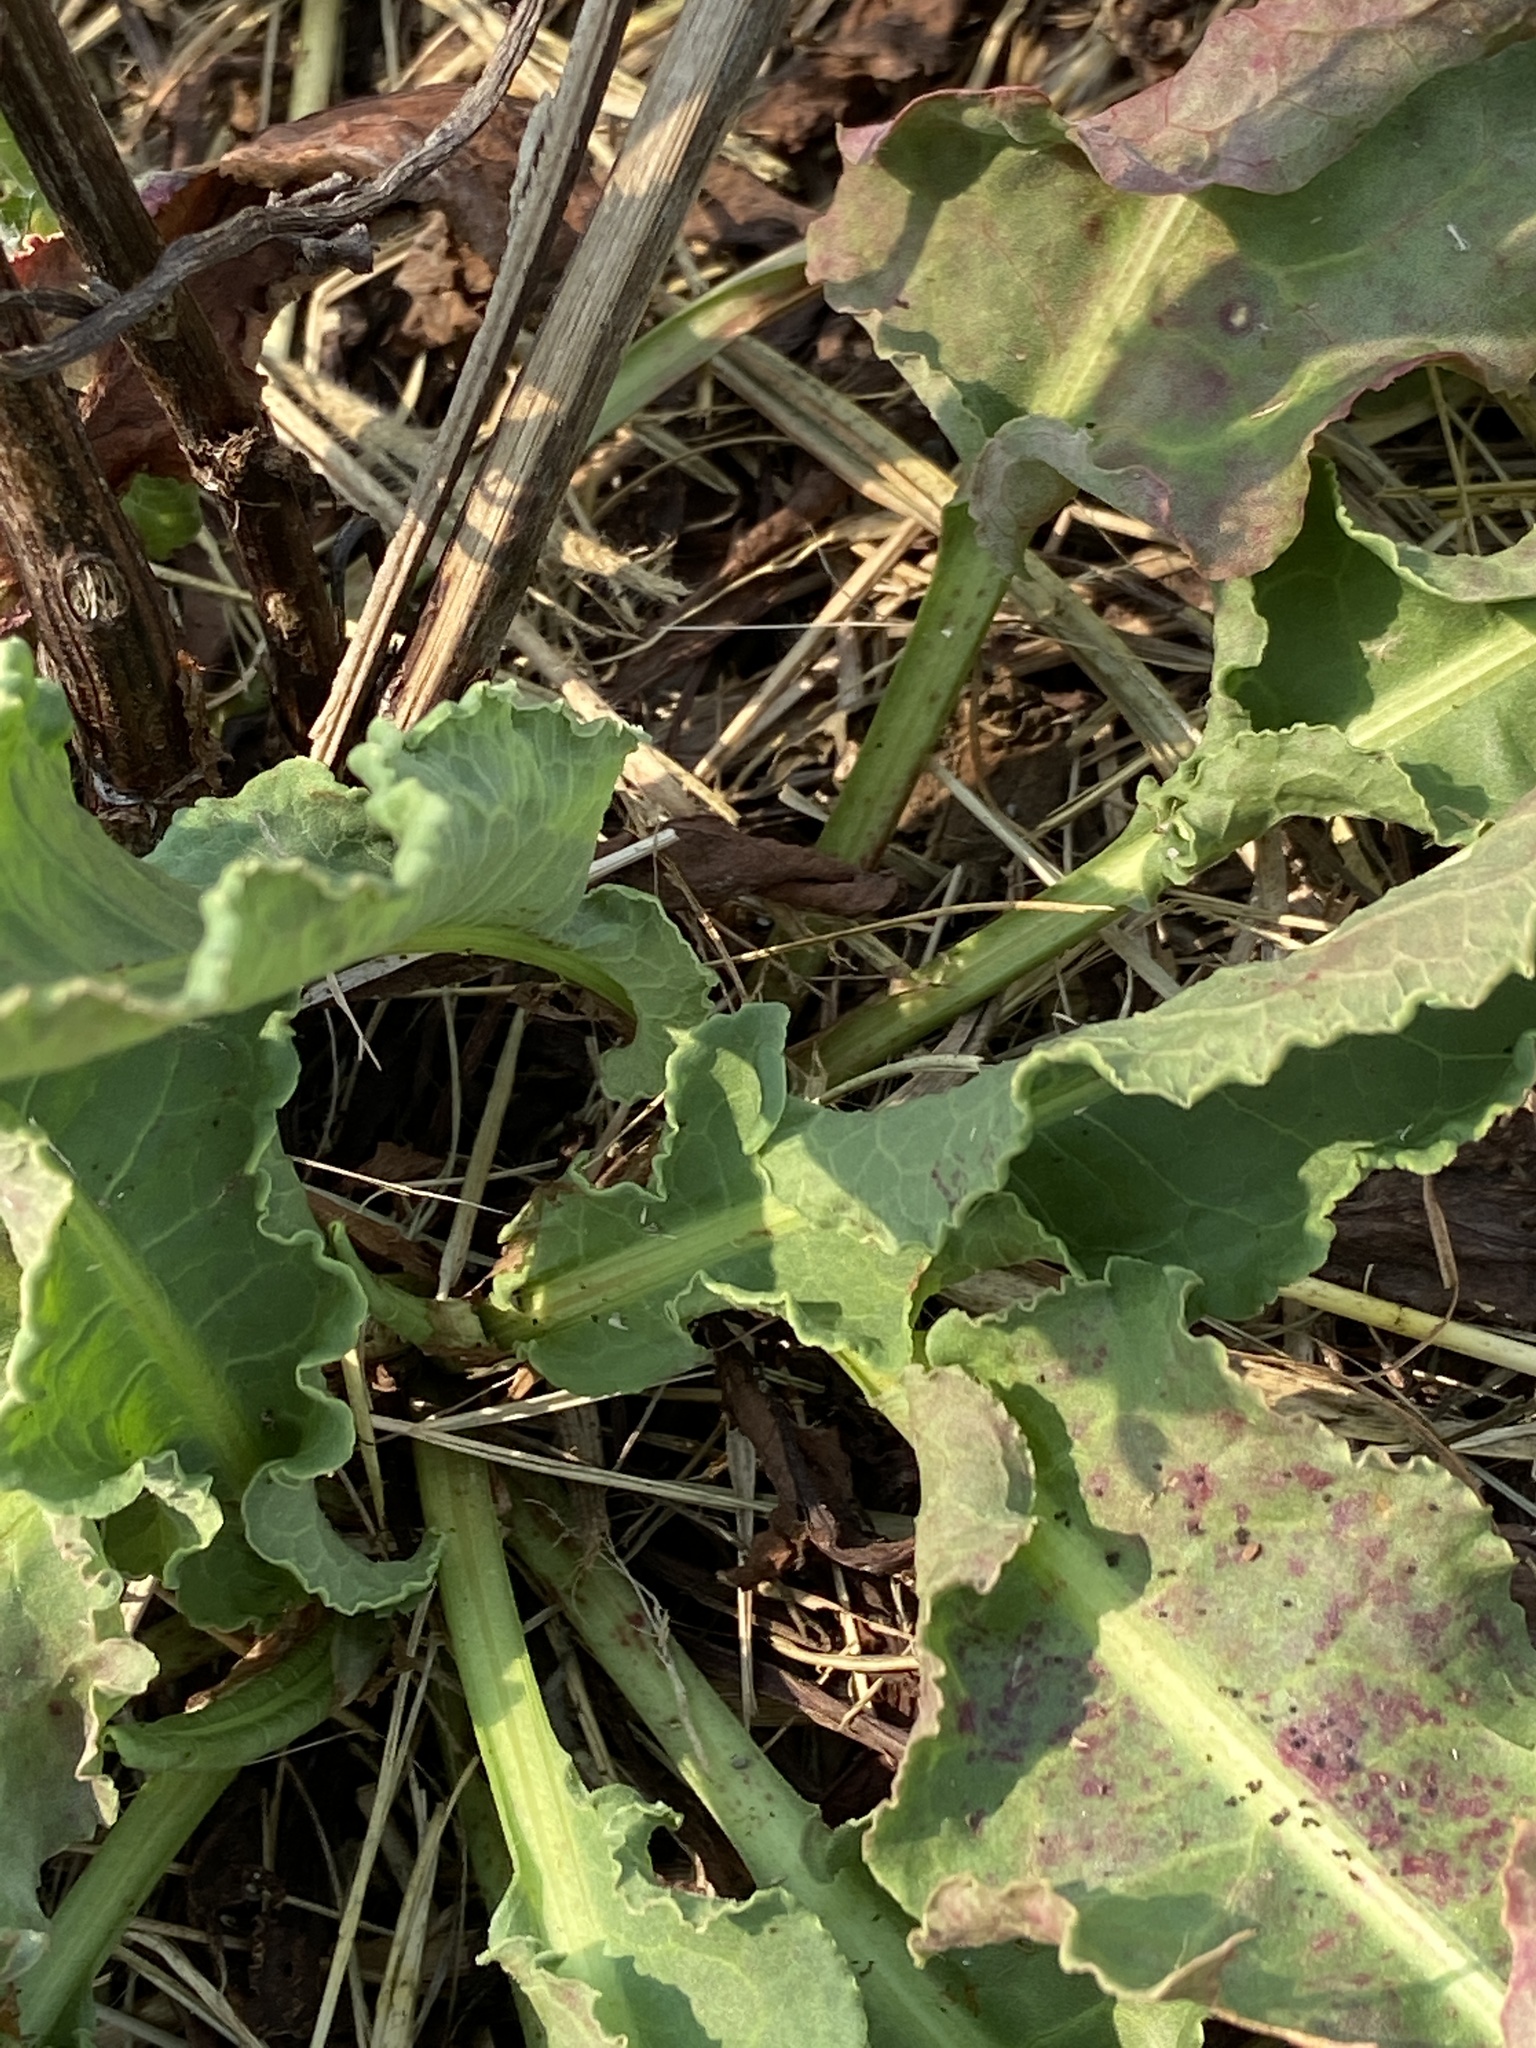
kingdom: Plantae
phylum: Tracheophyta
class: Magnoliopsida
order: Caryophyllales
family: Polygonaceae
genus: Rumex
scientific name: Rumex crispus
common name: Curled dock
